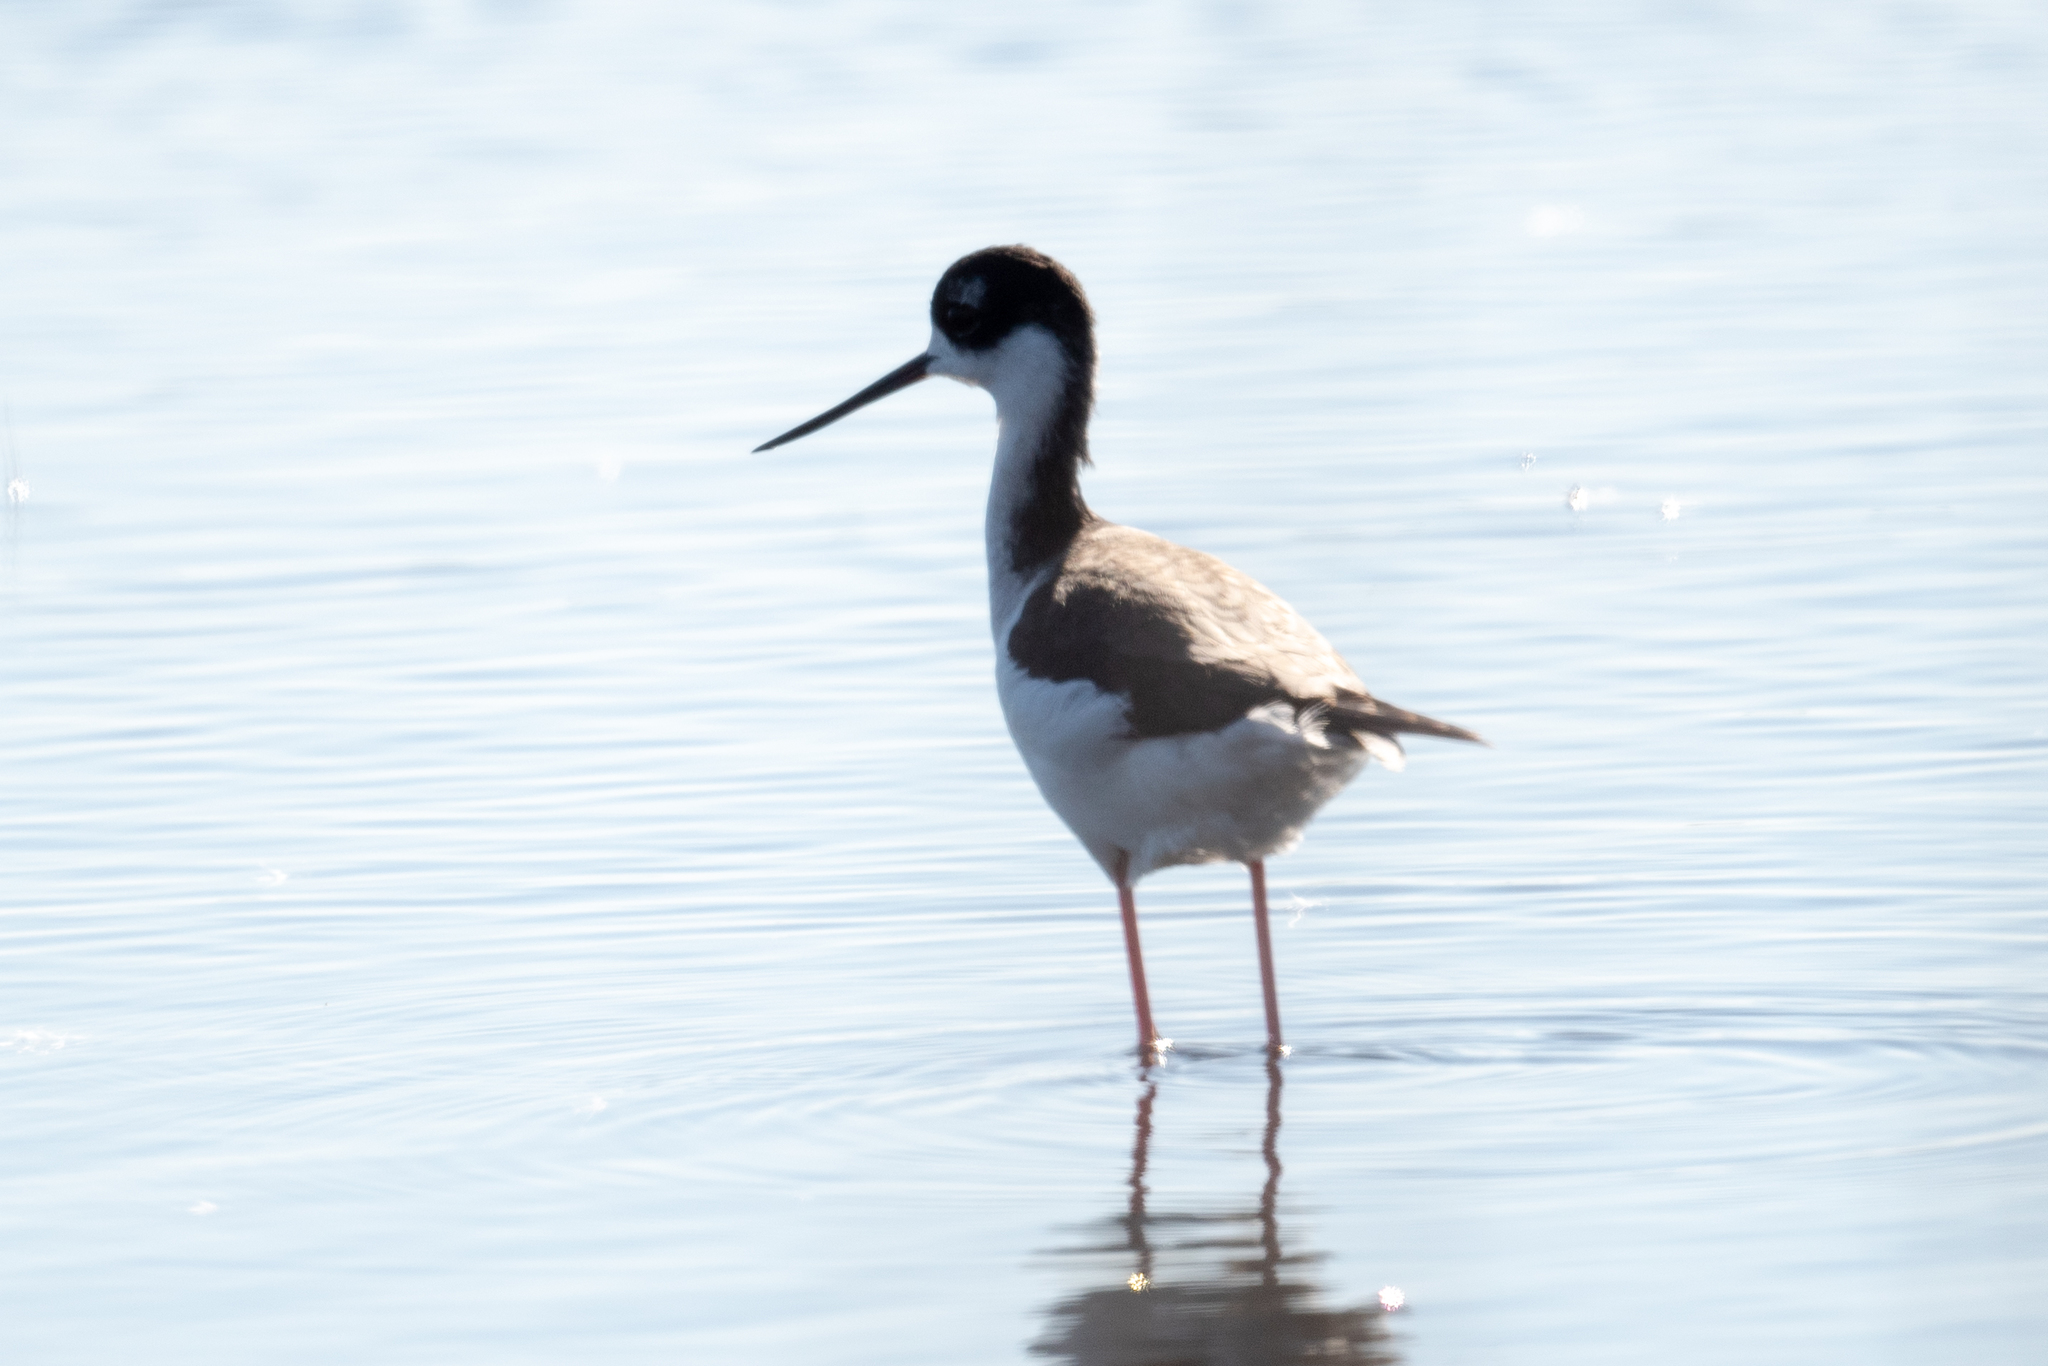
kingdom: Animalia
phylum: Chordata
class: Aves
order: Charadriiformes
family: Recurvirostridae
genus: Himantopus
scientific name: Himantopus mexicanus
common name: Black-necked stilt
